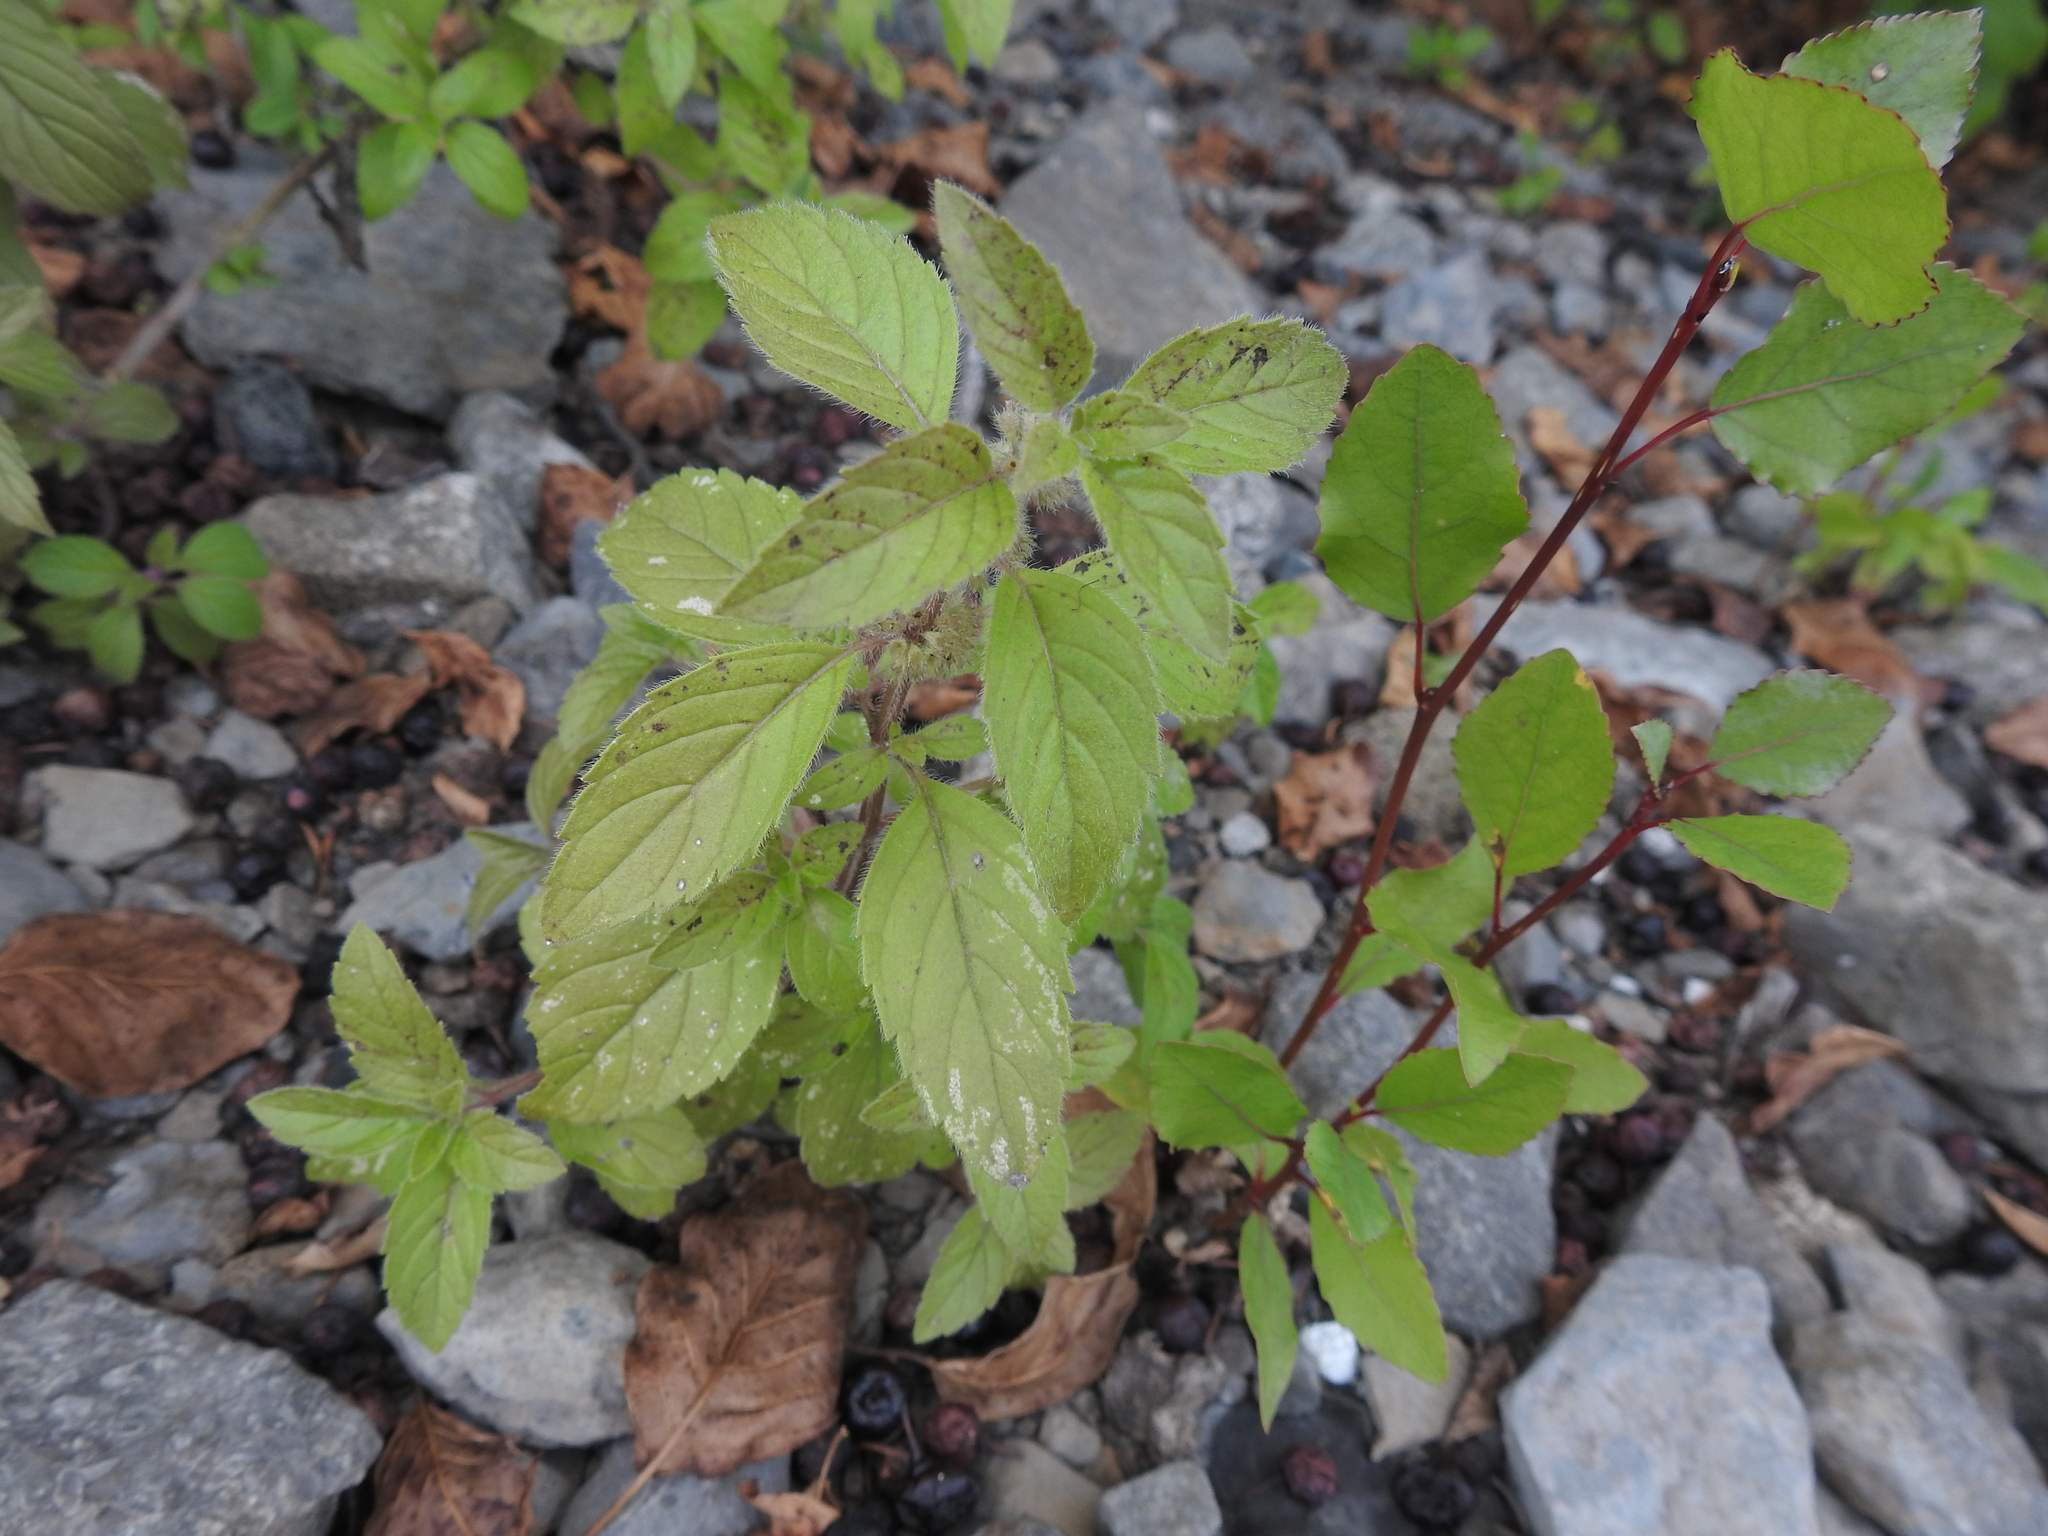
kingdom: Plantae
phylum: Tracheophyta
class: Magnoliopsida
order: Lamiales
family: Lamiaceae
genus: Mentha
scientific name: Mentha canadensis
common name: American corn mint
